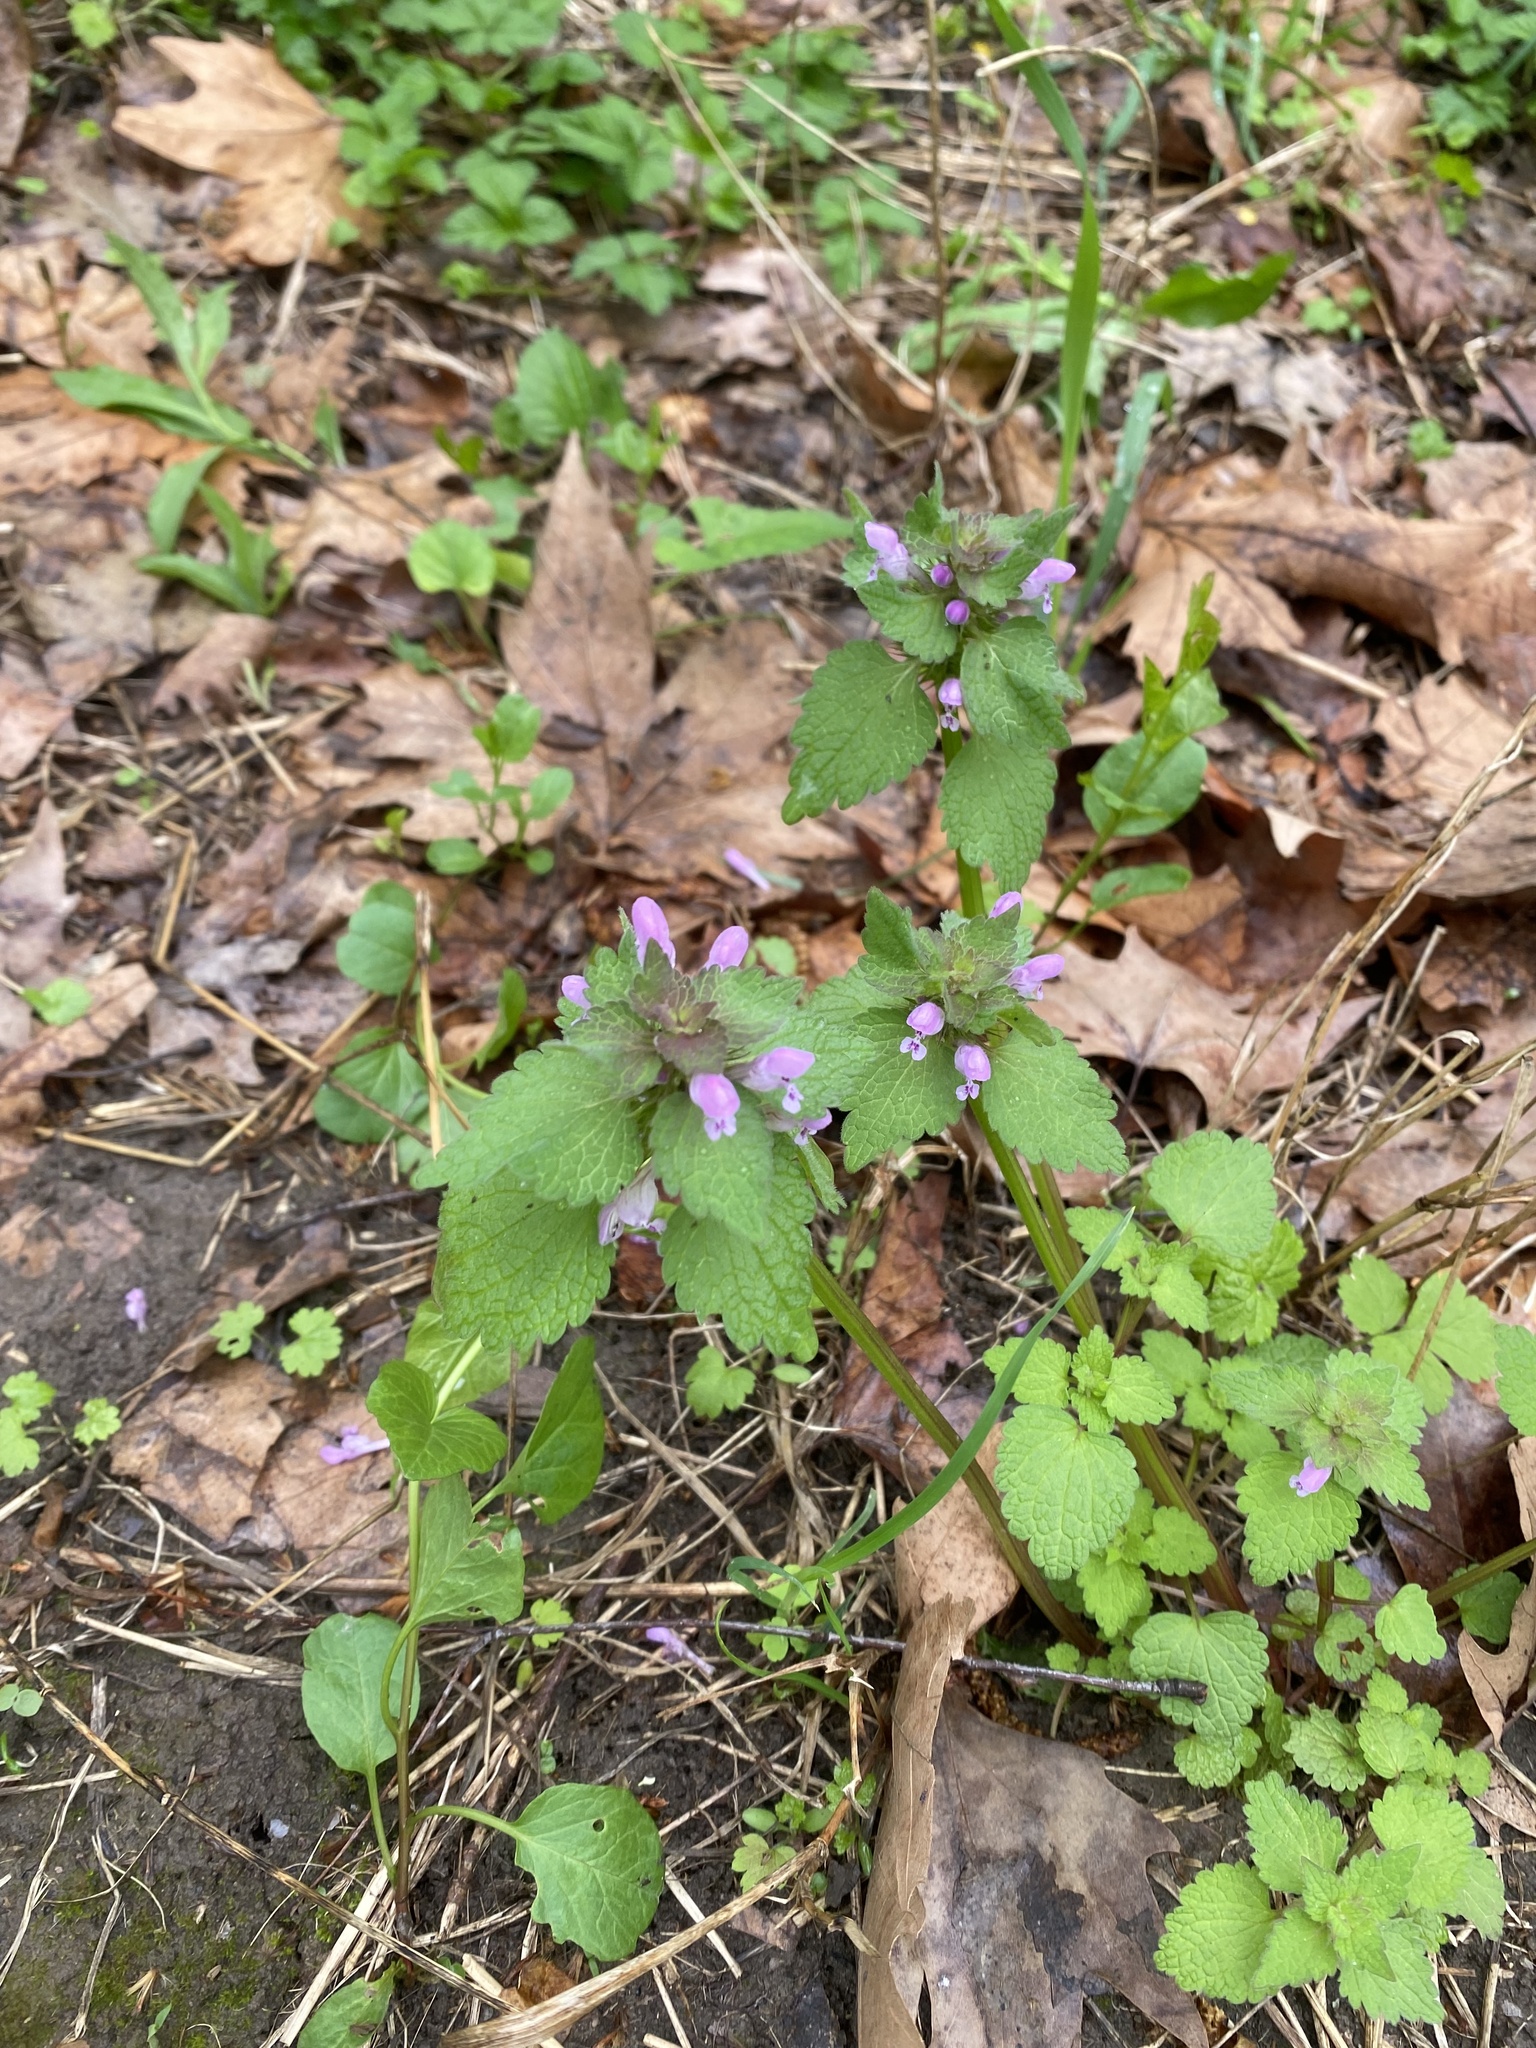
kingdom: Plantae
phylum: Tracheophyta
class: Magnoliopsida
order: Lamiales
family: Lamiaceae
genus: Lamium
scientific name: Lamium purpureum
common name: Red dead-nettle
